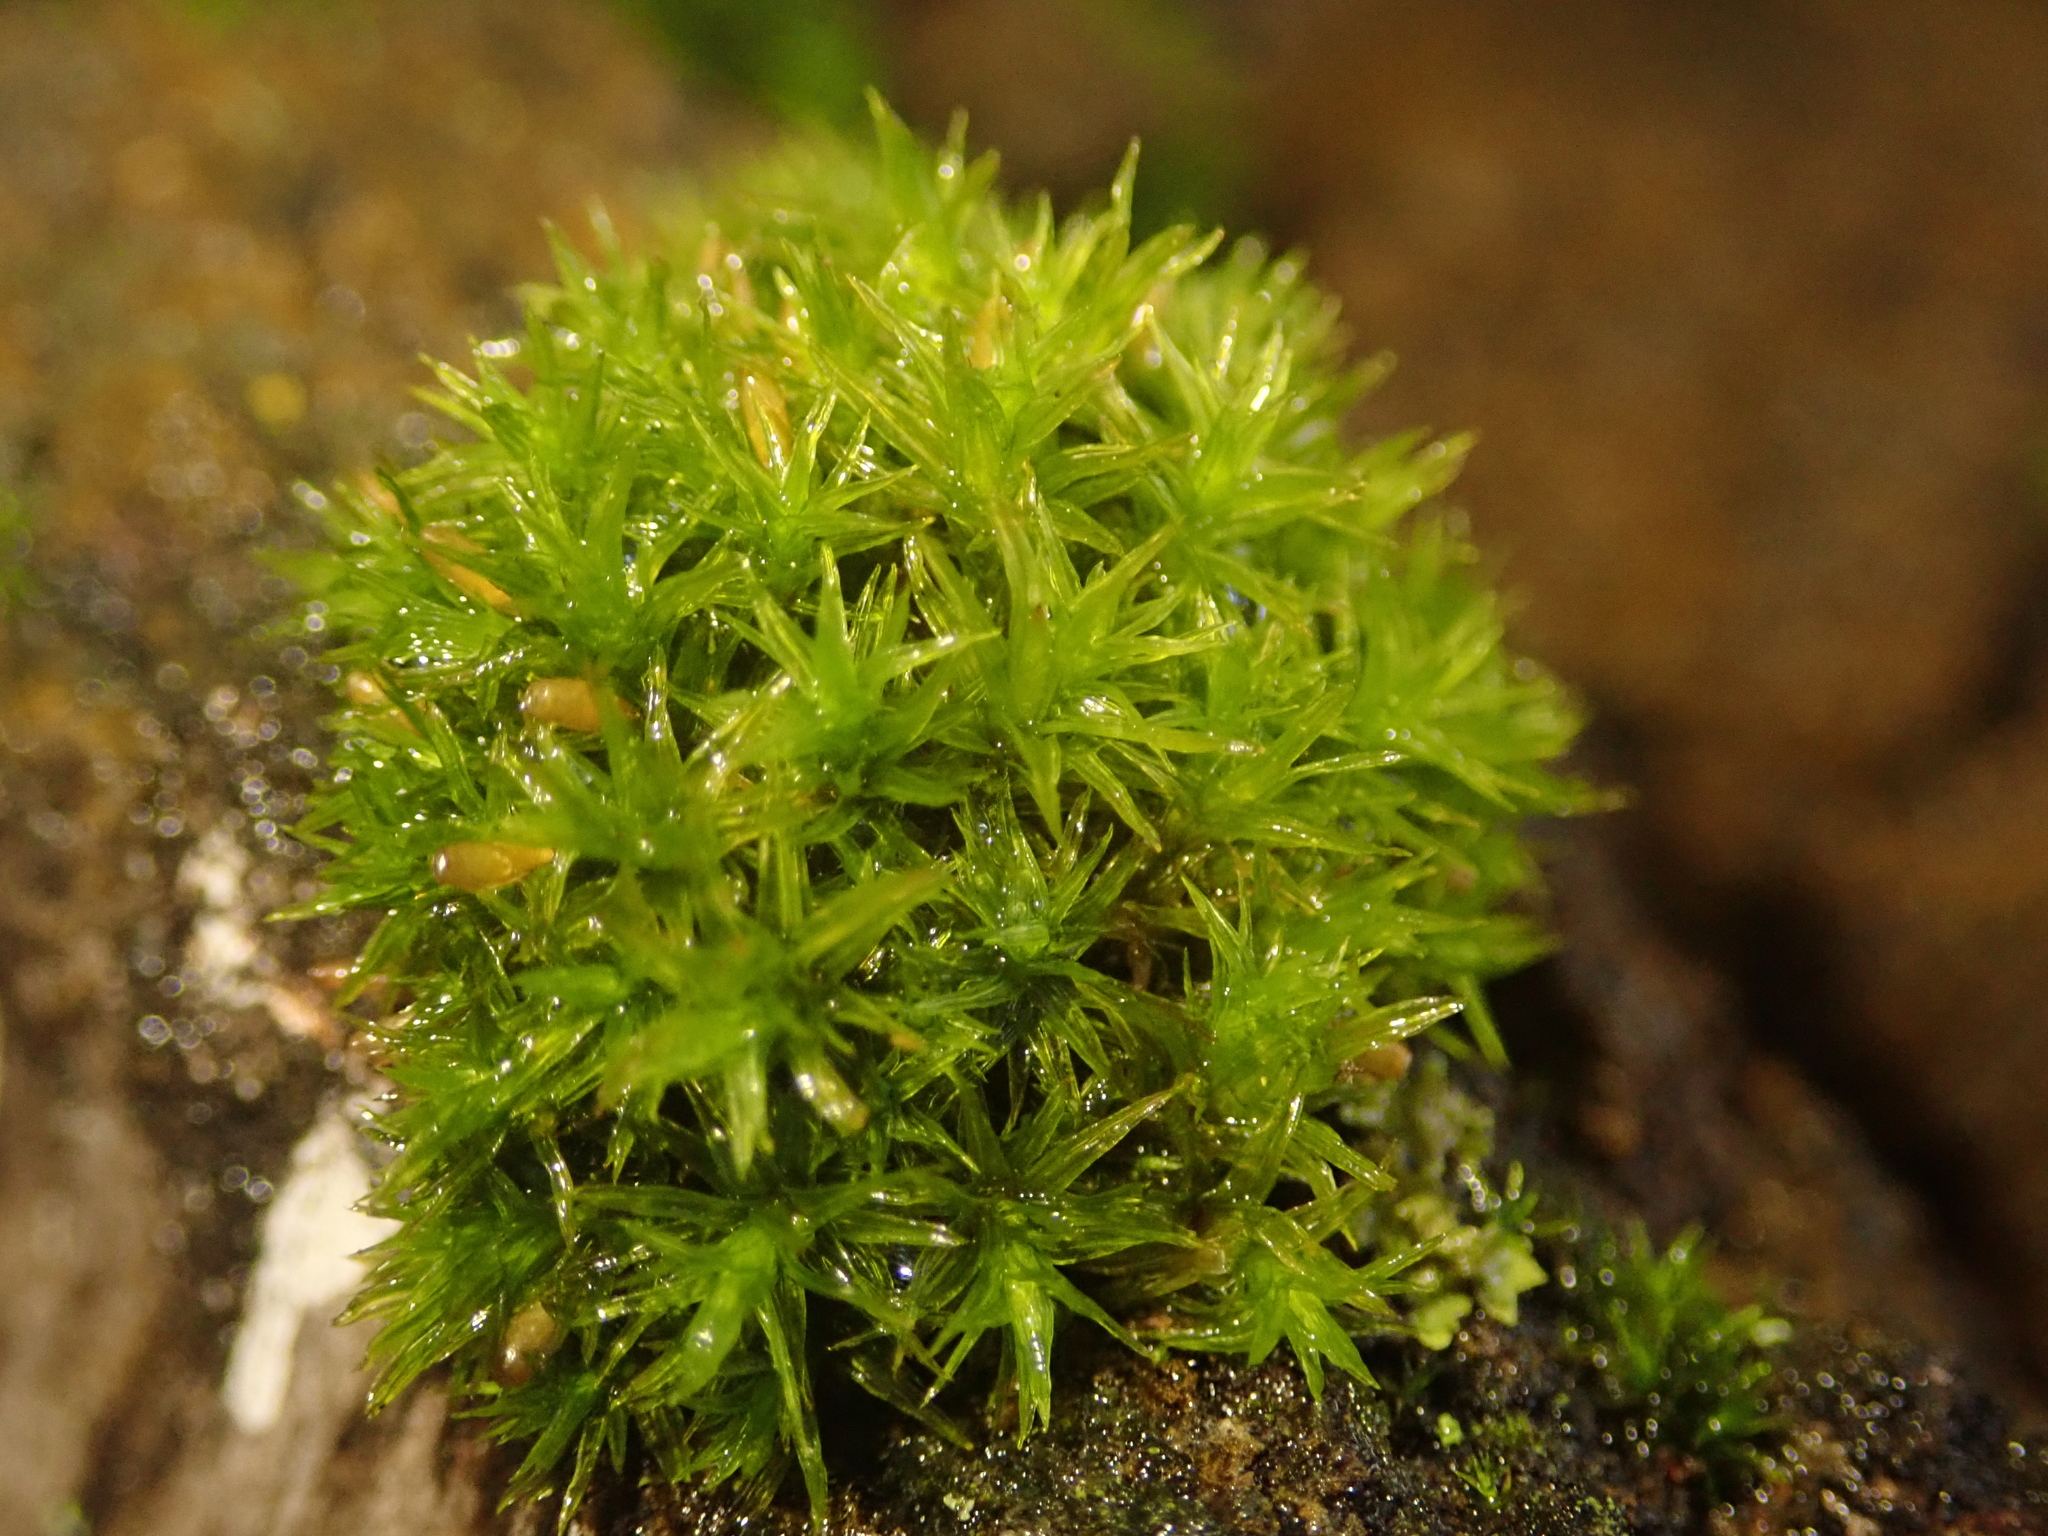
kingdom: Plantae
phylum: Bryophyta
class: Bryopsida
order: Orthotrichales
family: Orthotrichaceae
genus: Lewinskya
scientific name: Lewinskya affinis
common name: Wood bristle-moss
